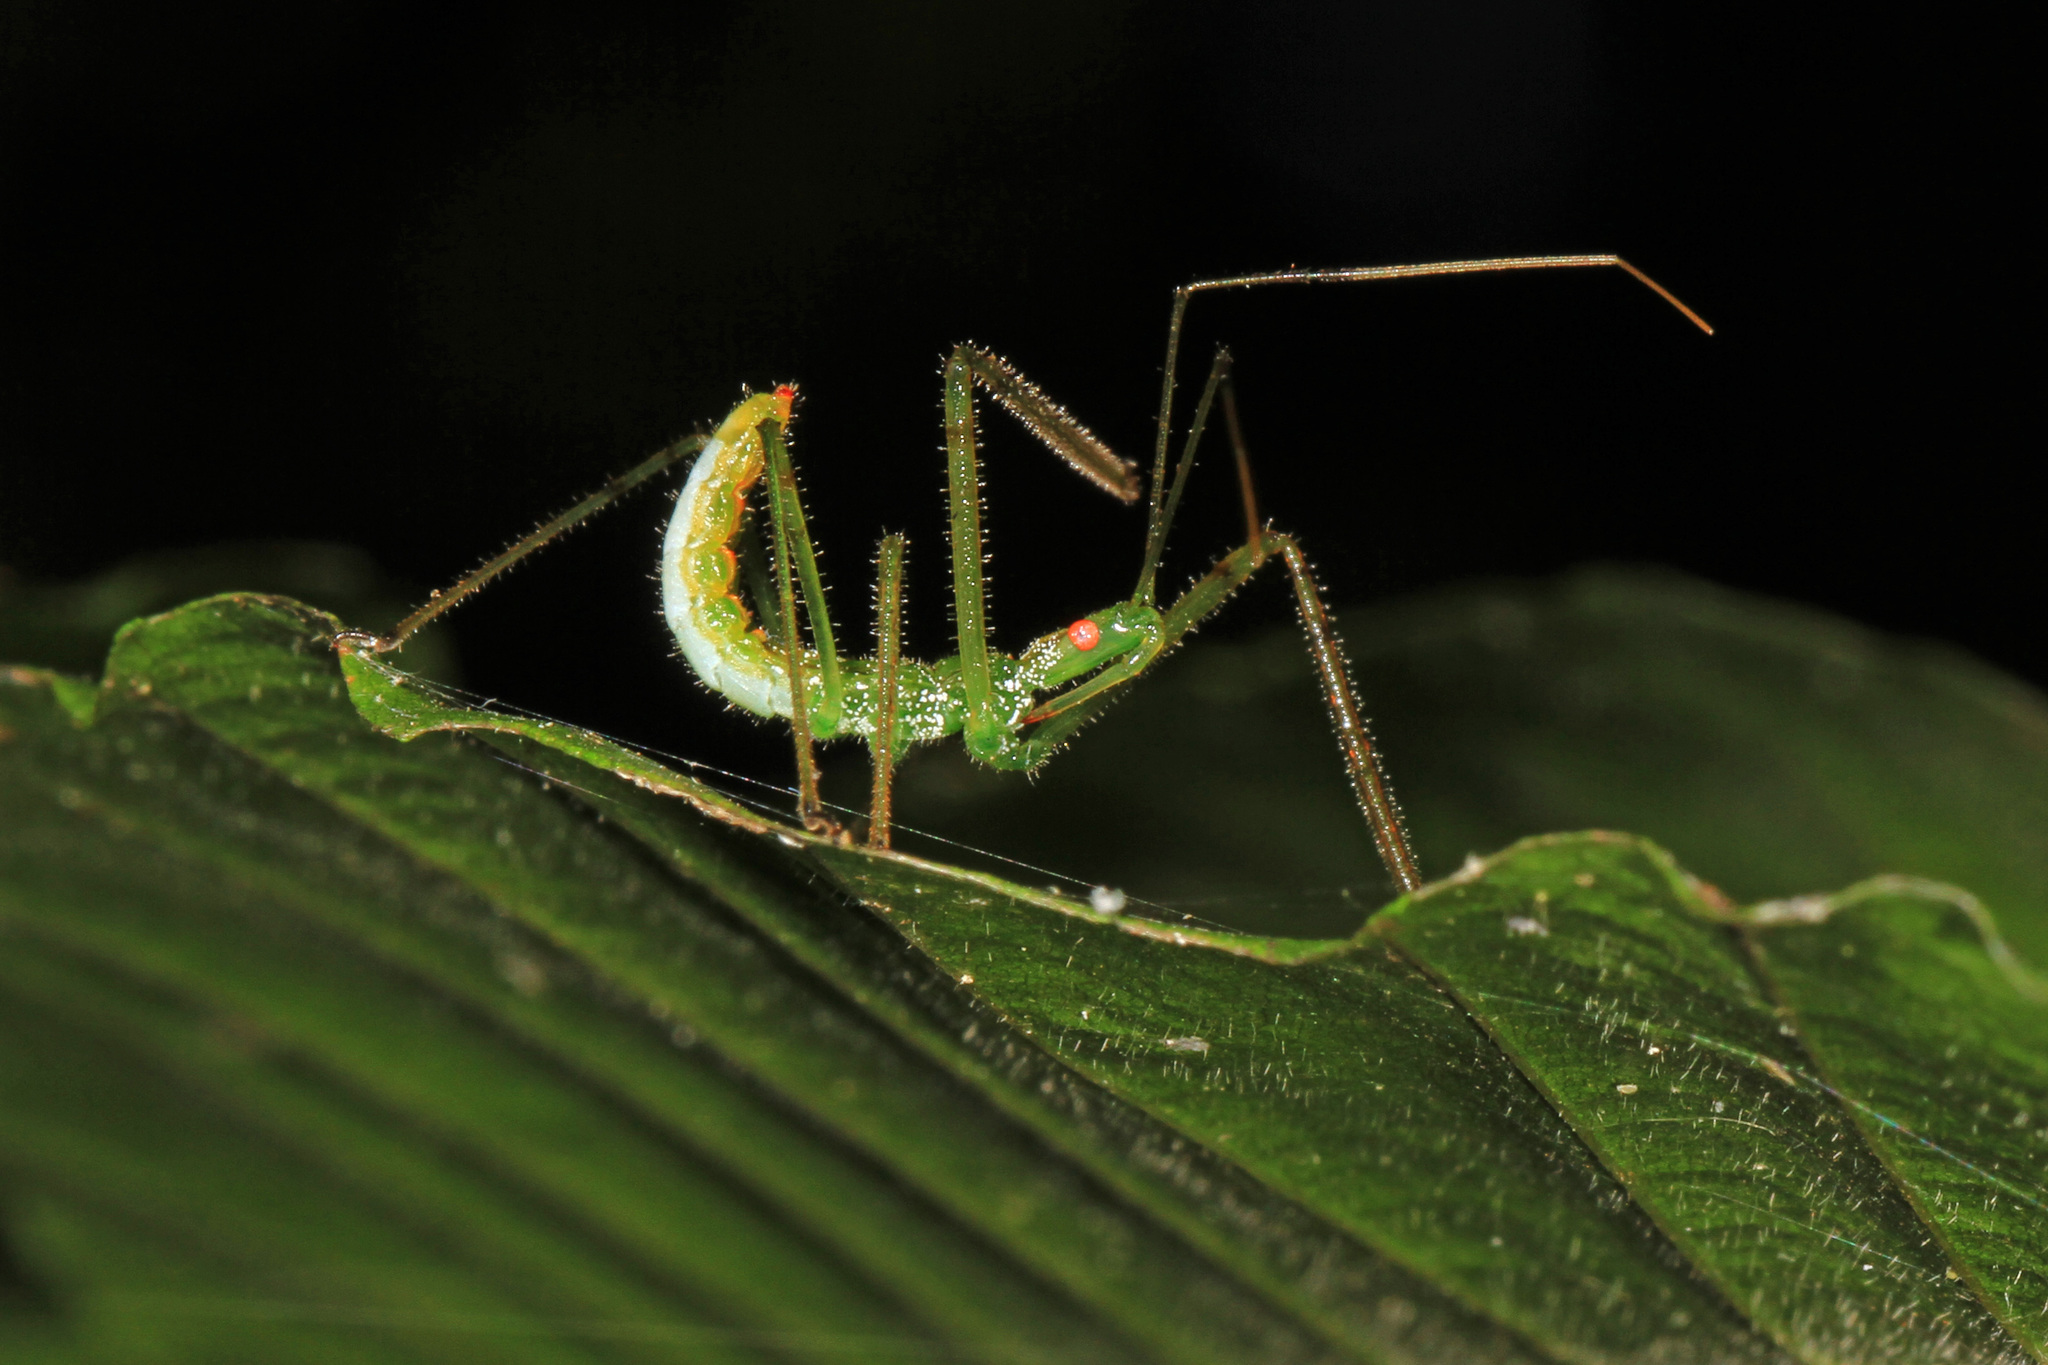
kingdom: Animalia
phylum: Arthropoda
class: Insecta
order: Hemiptera
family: Reduviidae
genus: Zelus
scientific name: Zelus luridus
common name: Pale green assassin bug
